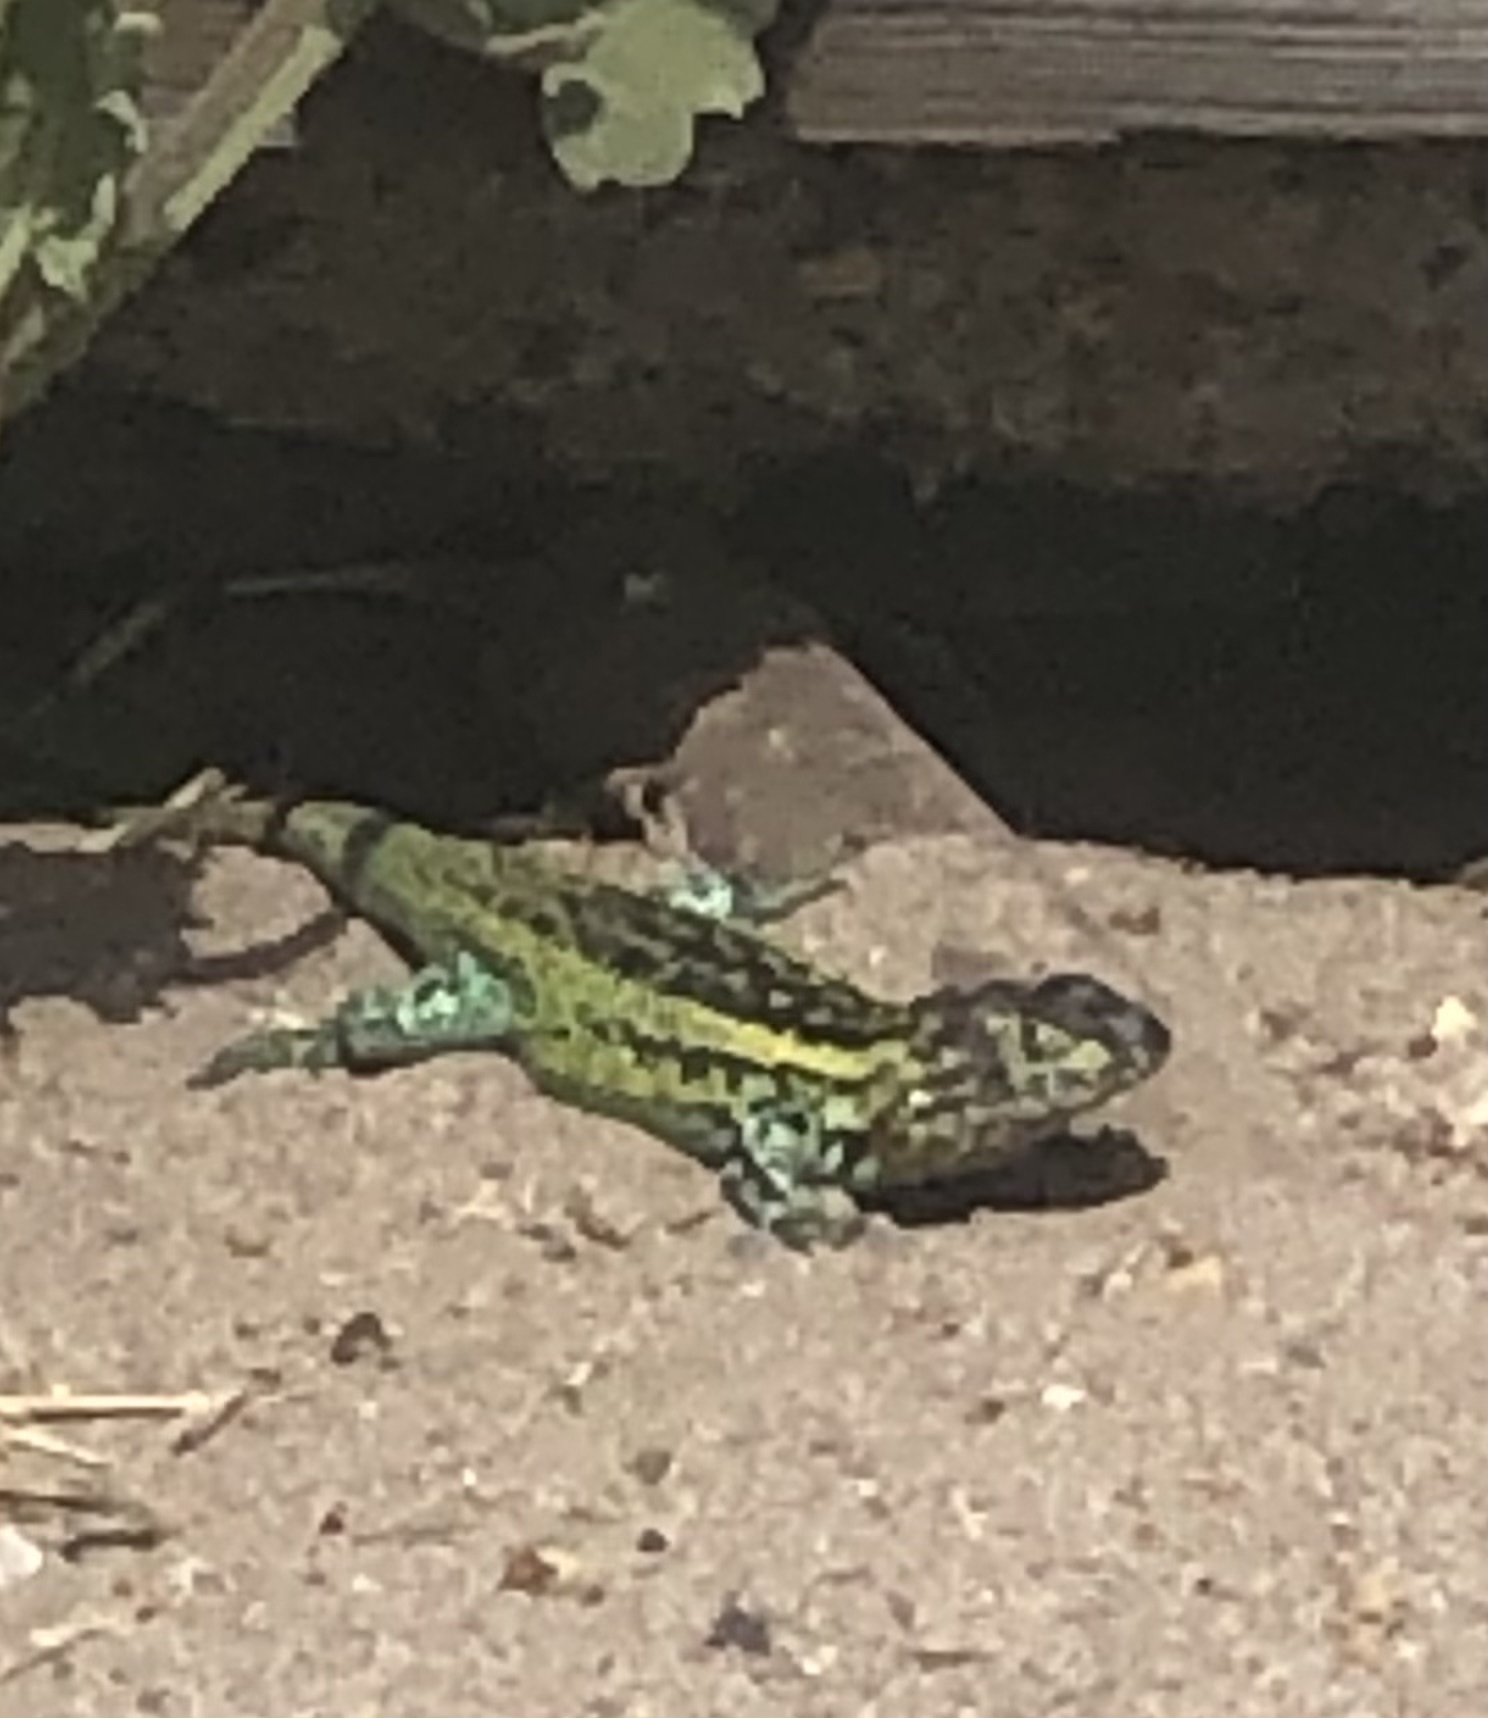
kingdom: Animalia
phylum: Chordata
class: Squamata
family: Liolaemidae
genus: Liolaemus
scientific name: Liolaemus zapallarensis
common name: Zapallaren tree iguana
